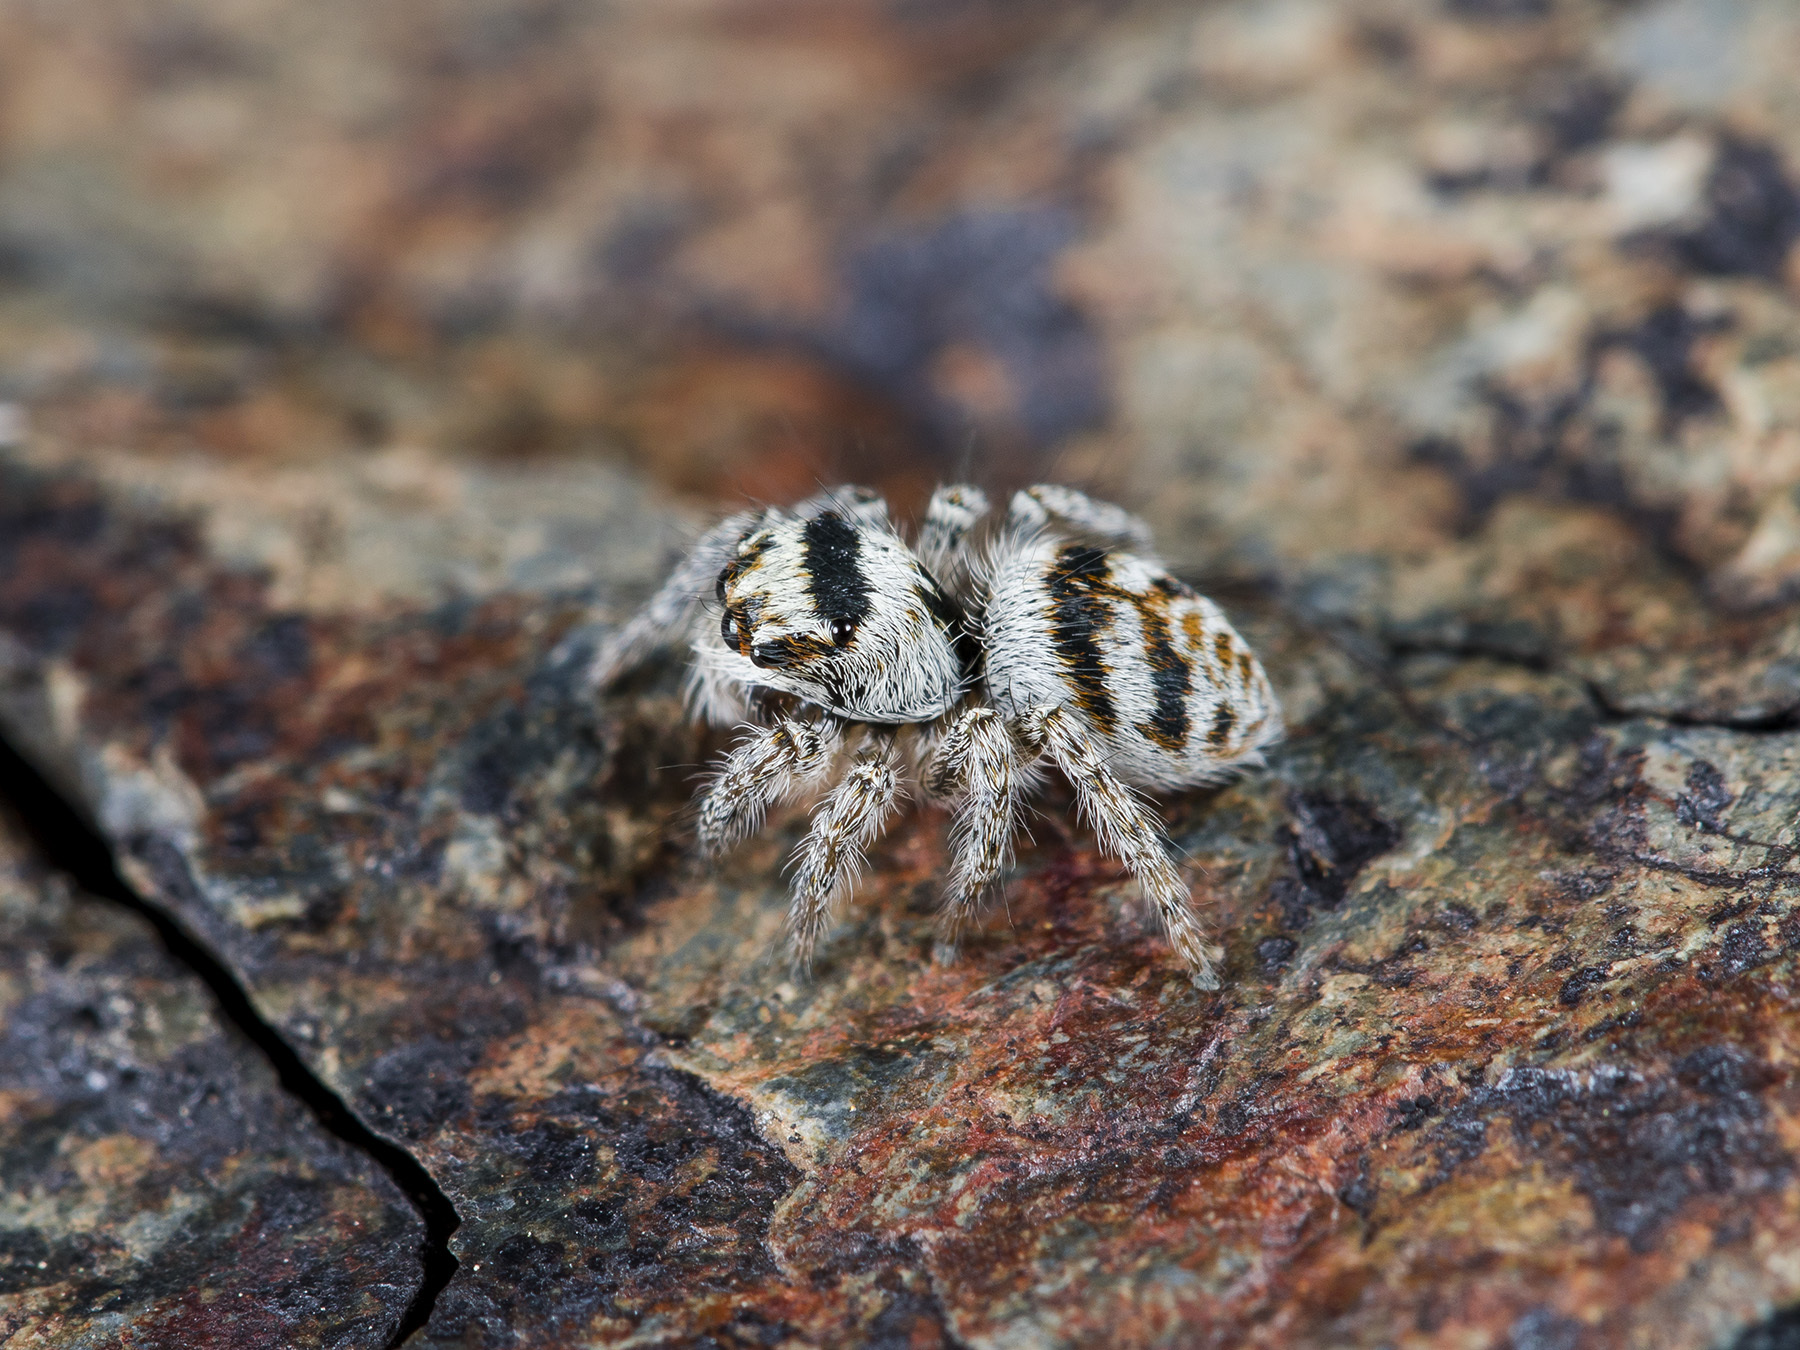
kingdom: Animalia
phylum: Arthropoda
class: Arachnida
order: Araneae
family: Salticidae
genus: Philaeus
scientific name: Philaeus chrysops
